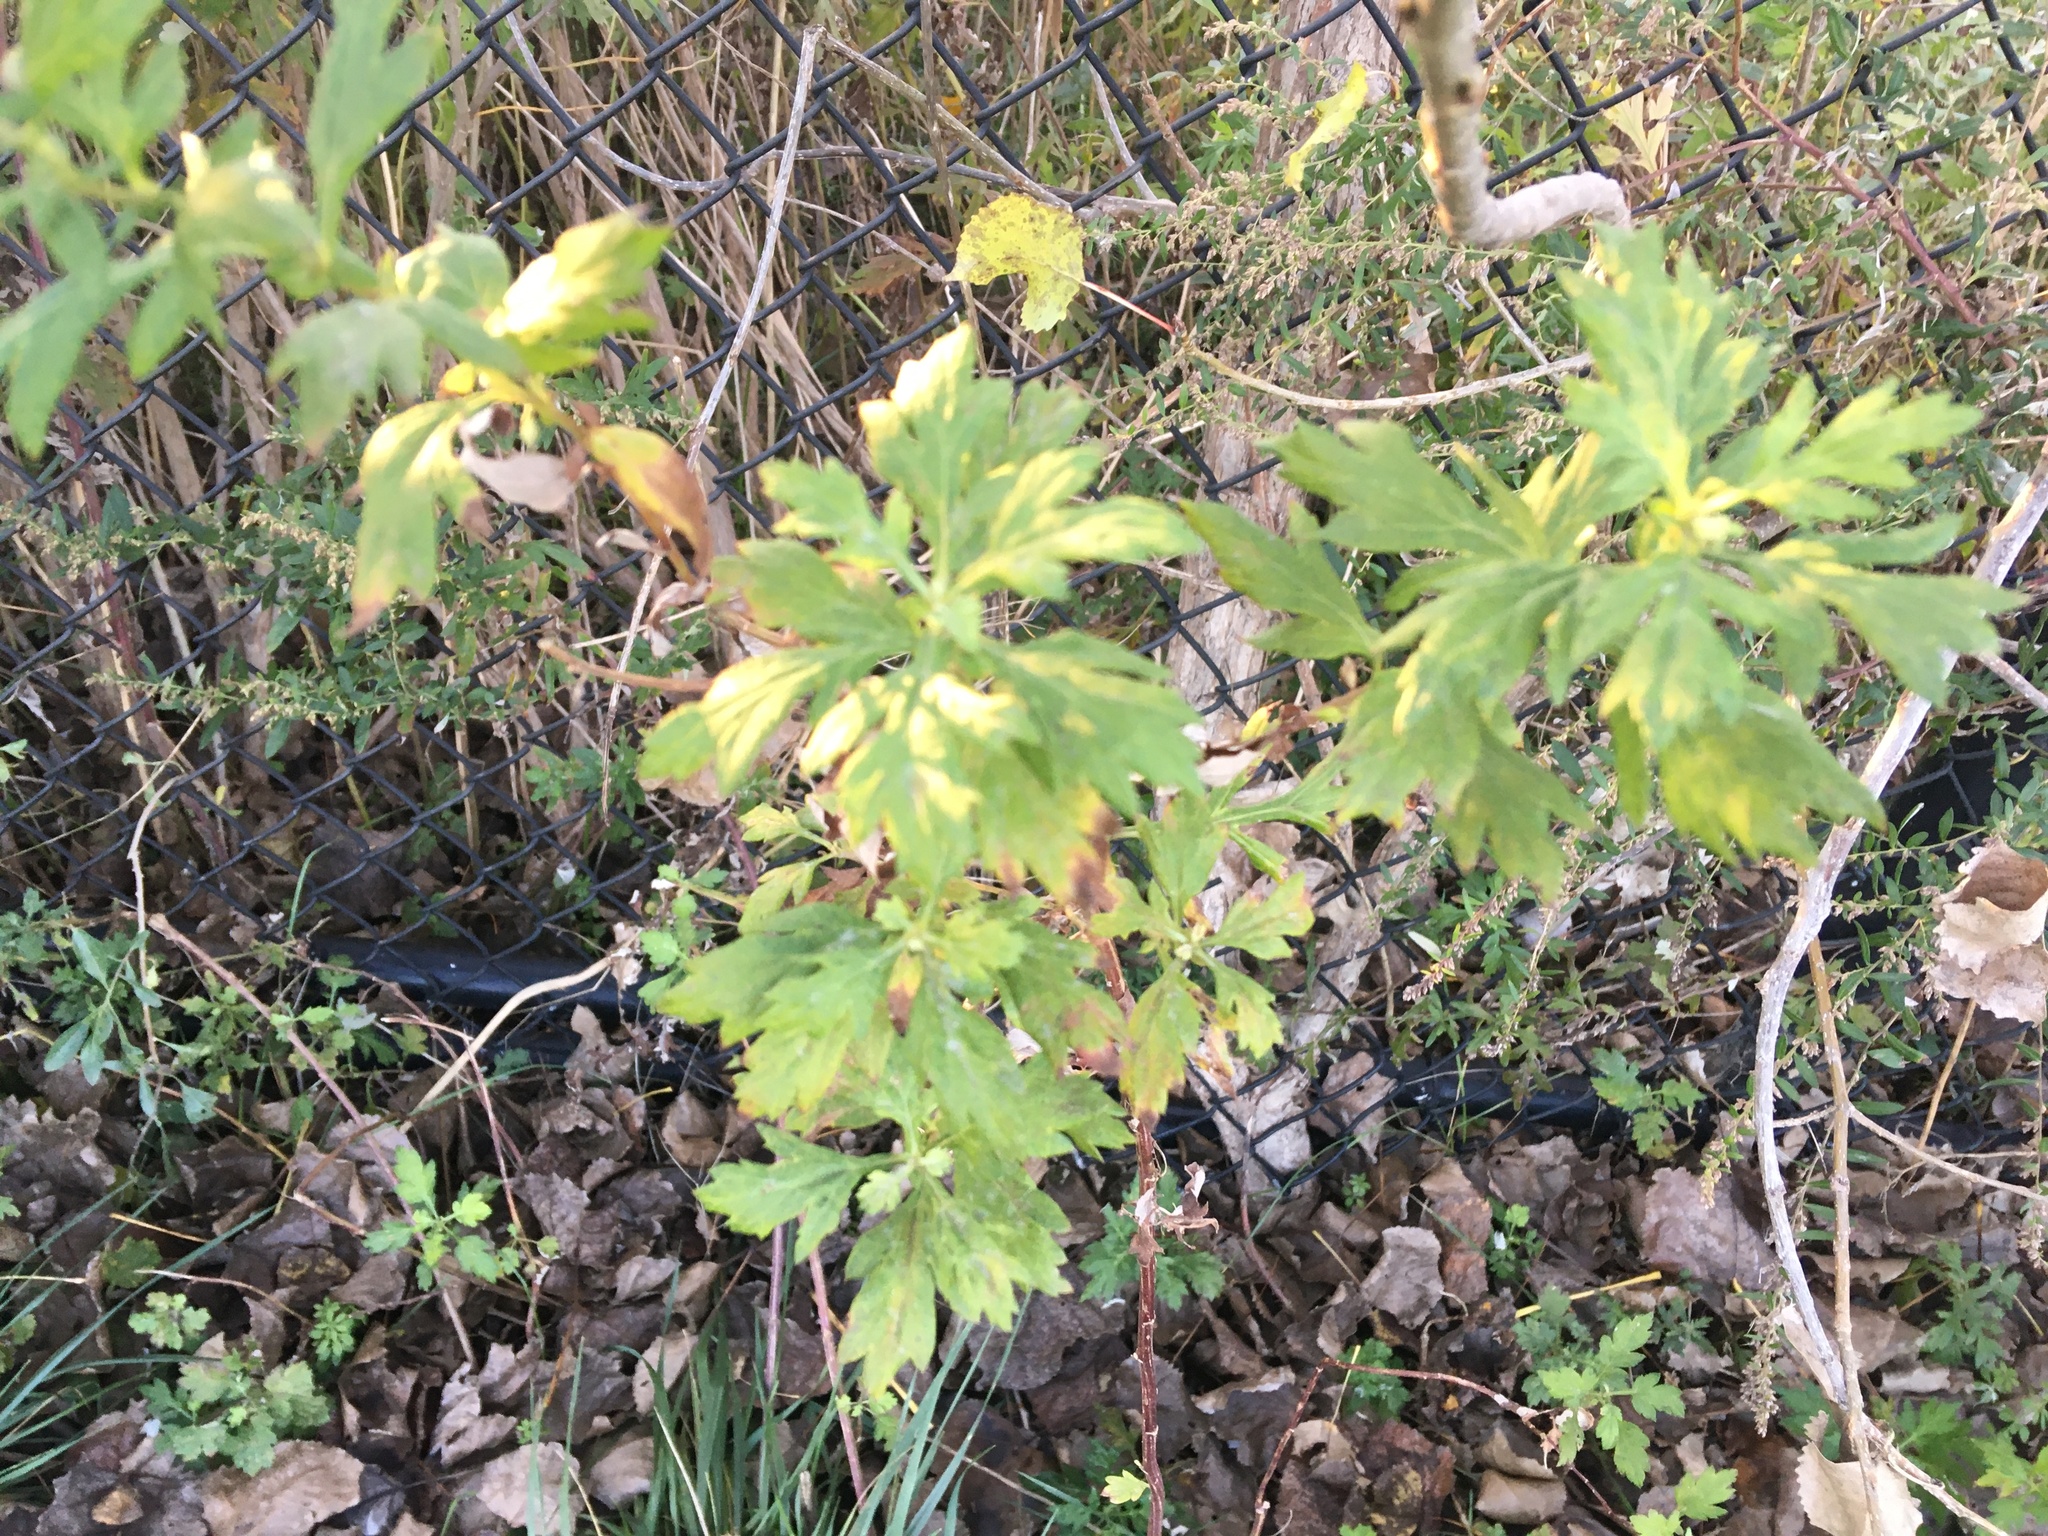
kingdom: Plantae
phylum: Tracheophyta
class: Magnoliopsida
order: Asterales
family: Asteraceae
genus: Artemisia
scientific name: Artemisia vulgaris
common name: Mugwort
